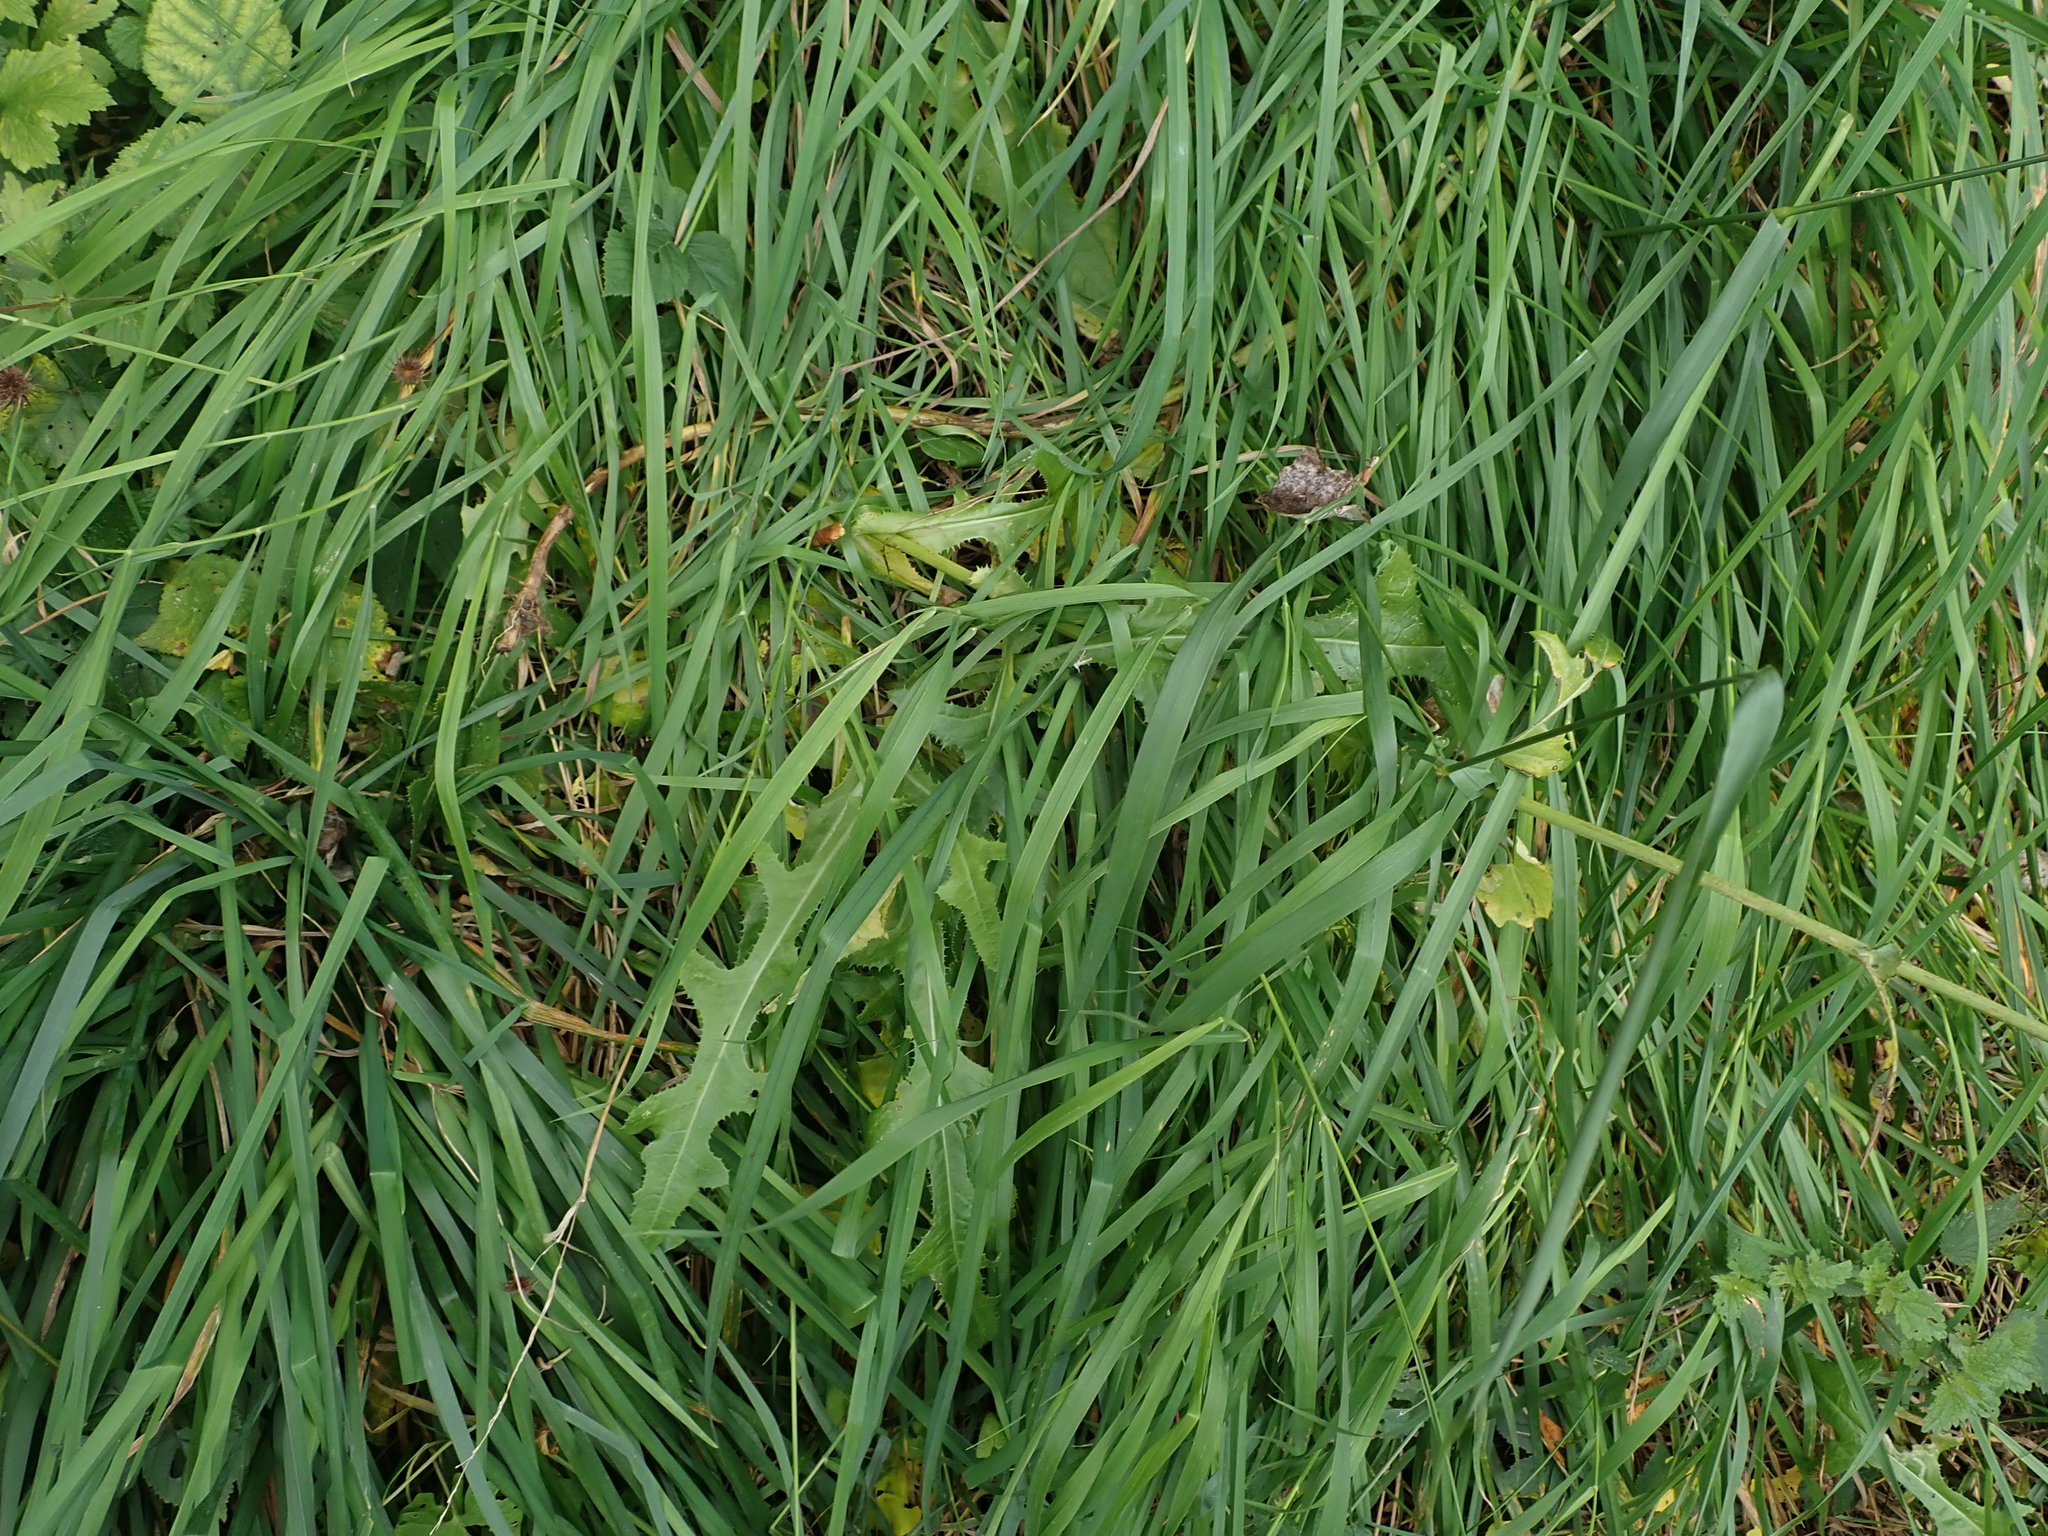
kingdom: Plantae
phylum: Tracheophyta
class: Magnoliopsida
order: Asterales
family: Asteraceae
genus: Sonchus
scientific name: Sonchus arvensis
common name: Perennial sow-thistle
